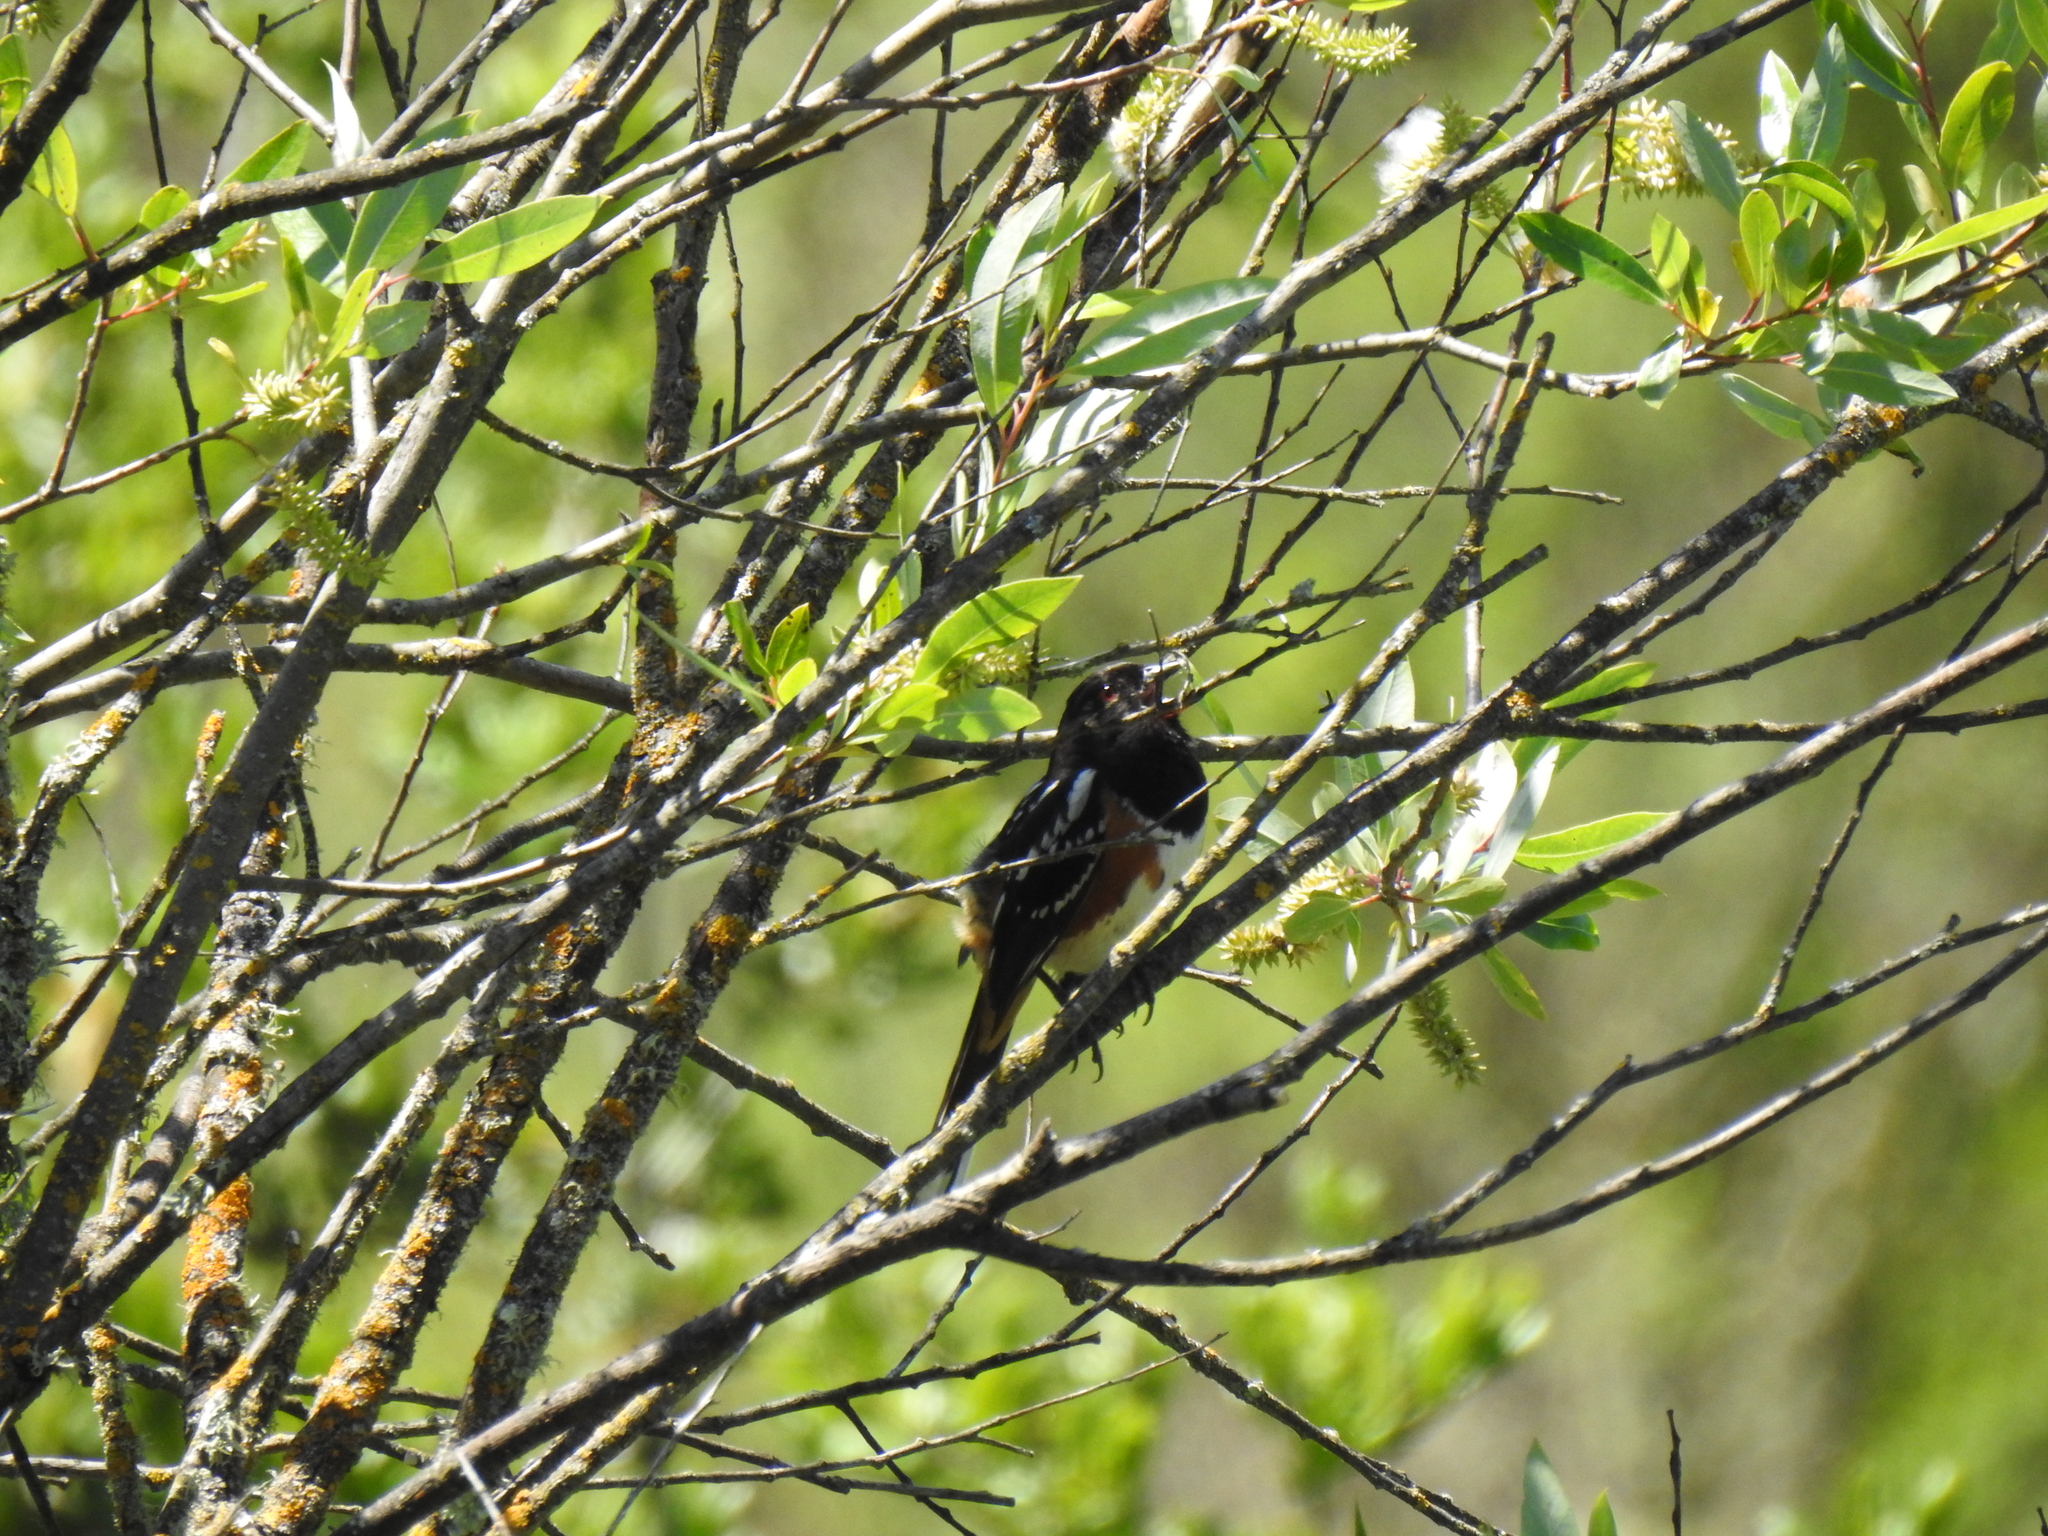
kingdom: Animalia
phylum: Chordata
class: Aves
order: Passeriformes
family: Passerellidae
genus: Pipilo
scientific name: Pipilo maculatus
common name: Spotted towhee
